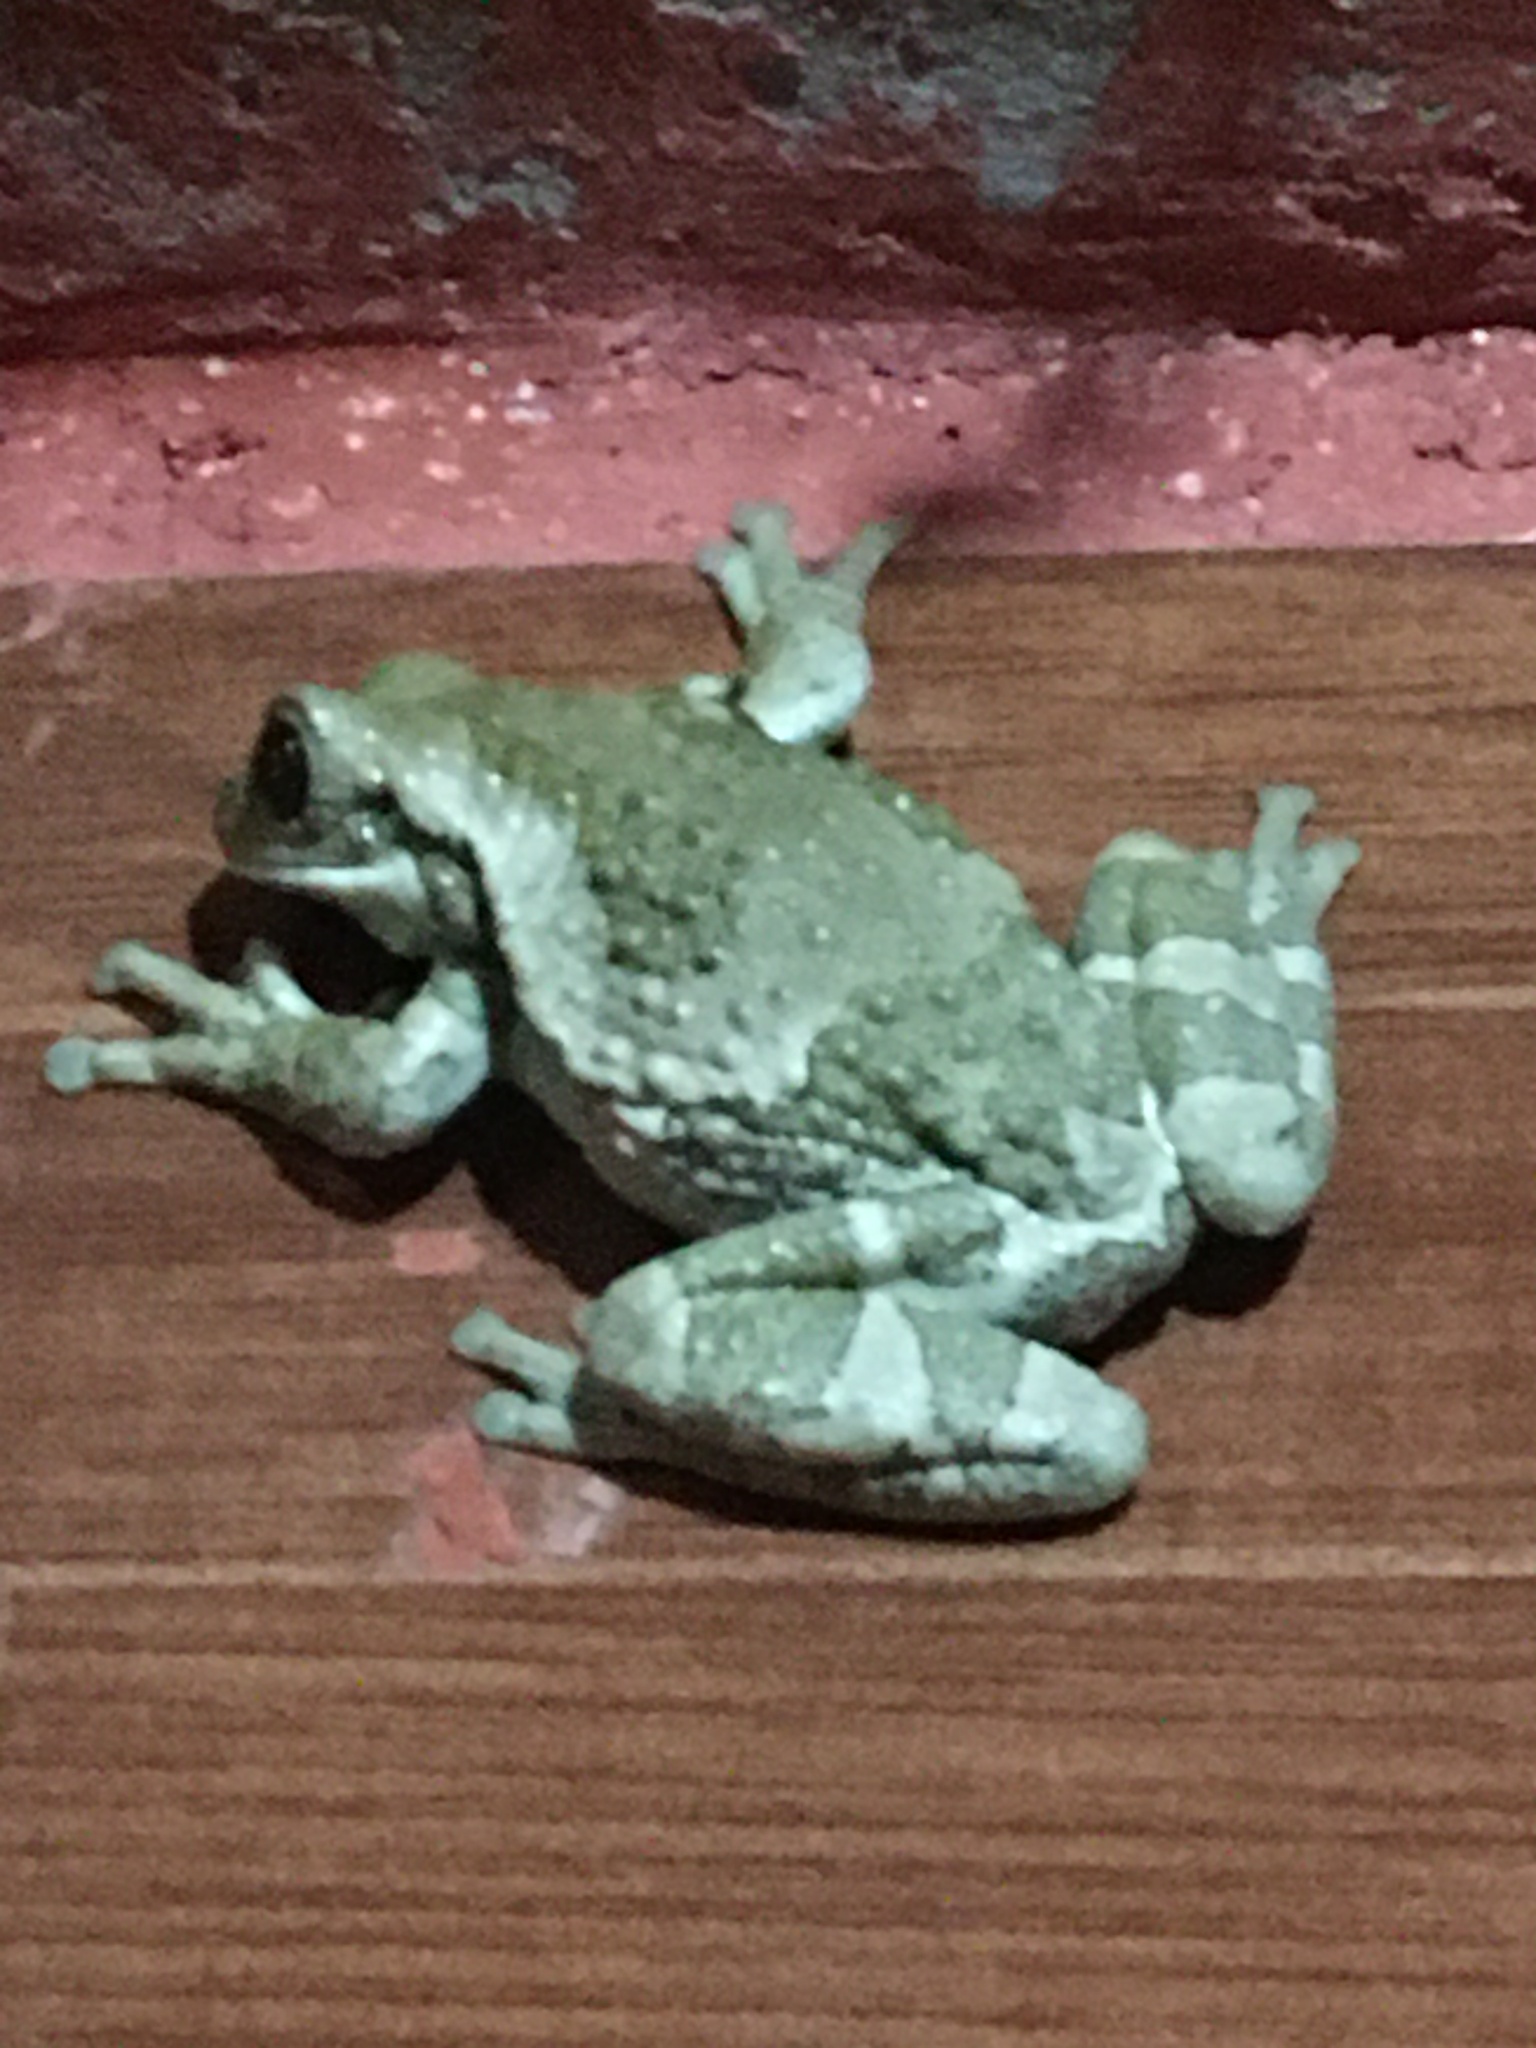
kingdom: Animalia
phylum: Chordata
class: Amphibia
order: Anura
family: Hylidae
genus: Trachycephalus
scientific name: Trachycephalus vermiculatus
